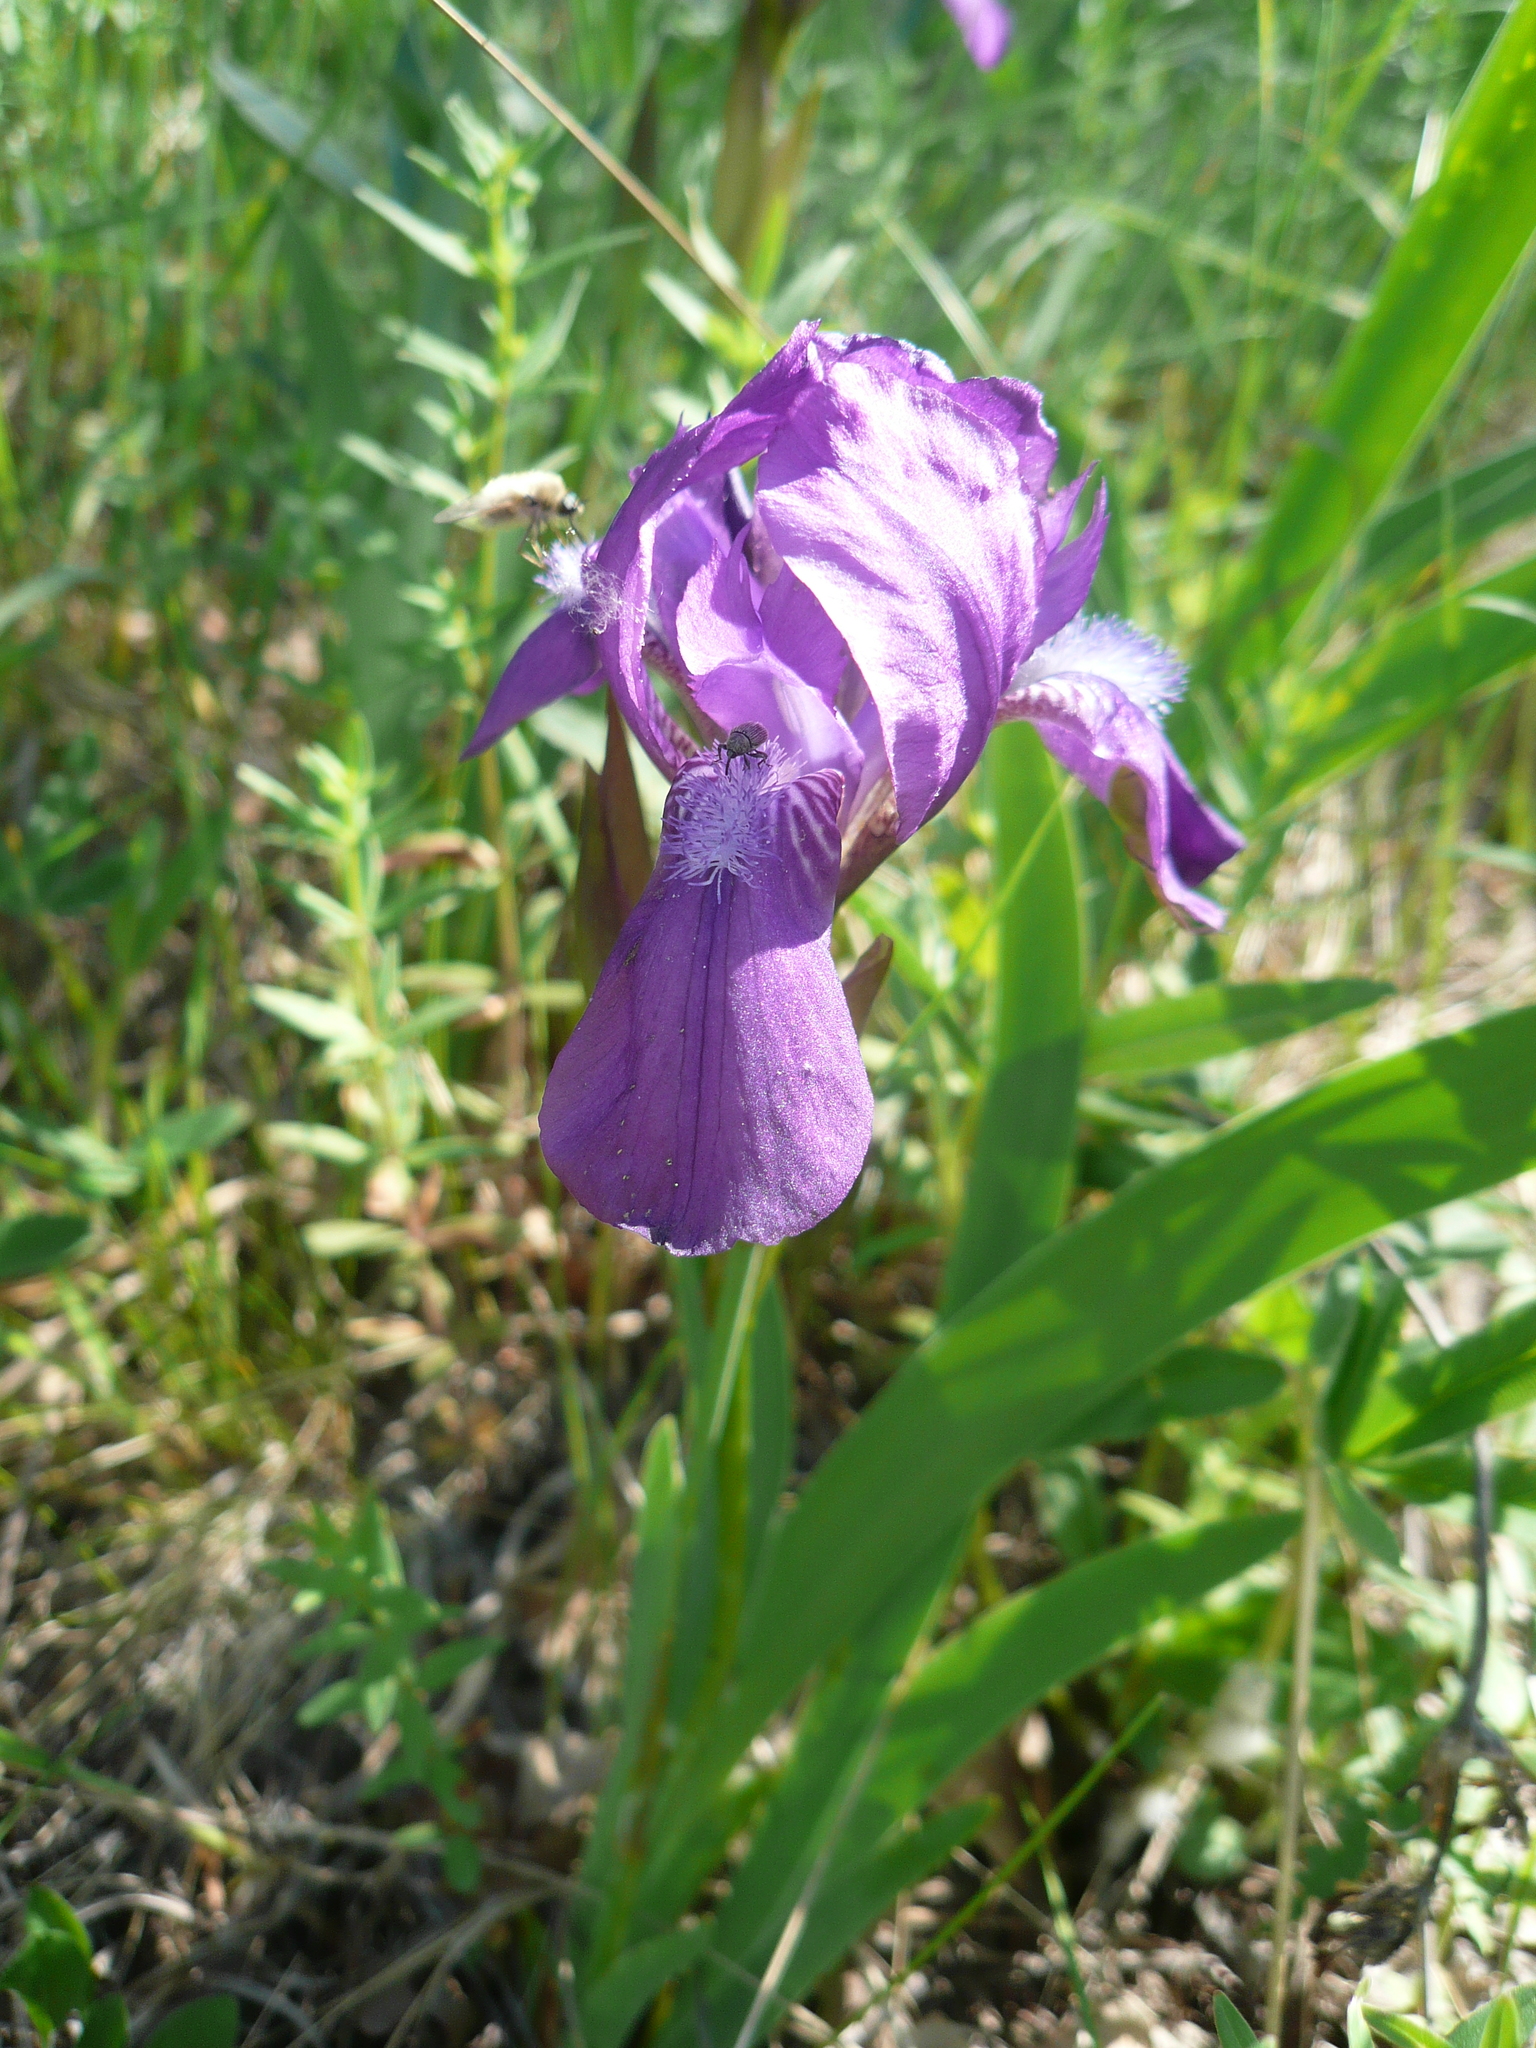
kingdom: Plantae
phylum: Tracheophyta
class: Liliopsida
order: Asparagales
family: Iridaceae
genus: Iris
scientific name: Iris aphylla
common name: Stool iris
